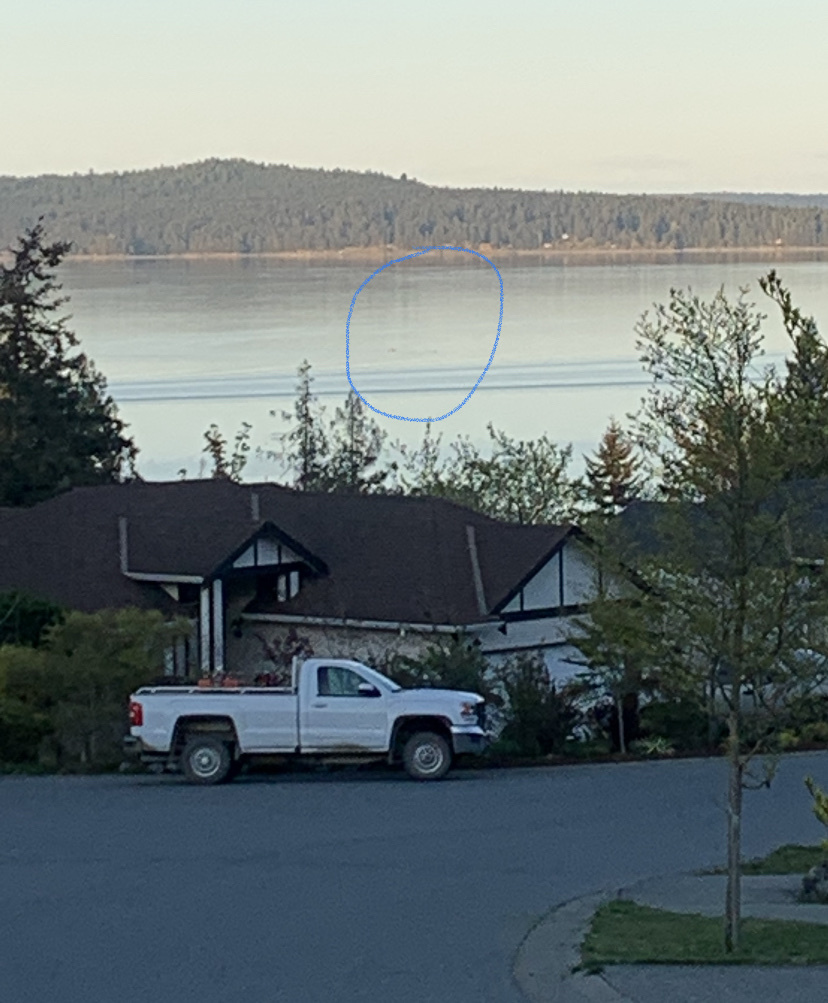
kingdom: Animalia
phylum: Chordata
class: Mammalia
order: Cetacea
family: Delphinidae
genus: Orcinus
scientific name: Orcinus orca
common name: Killer whale
